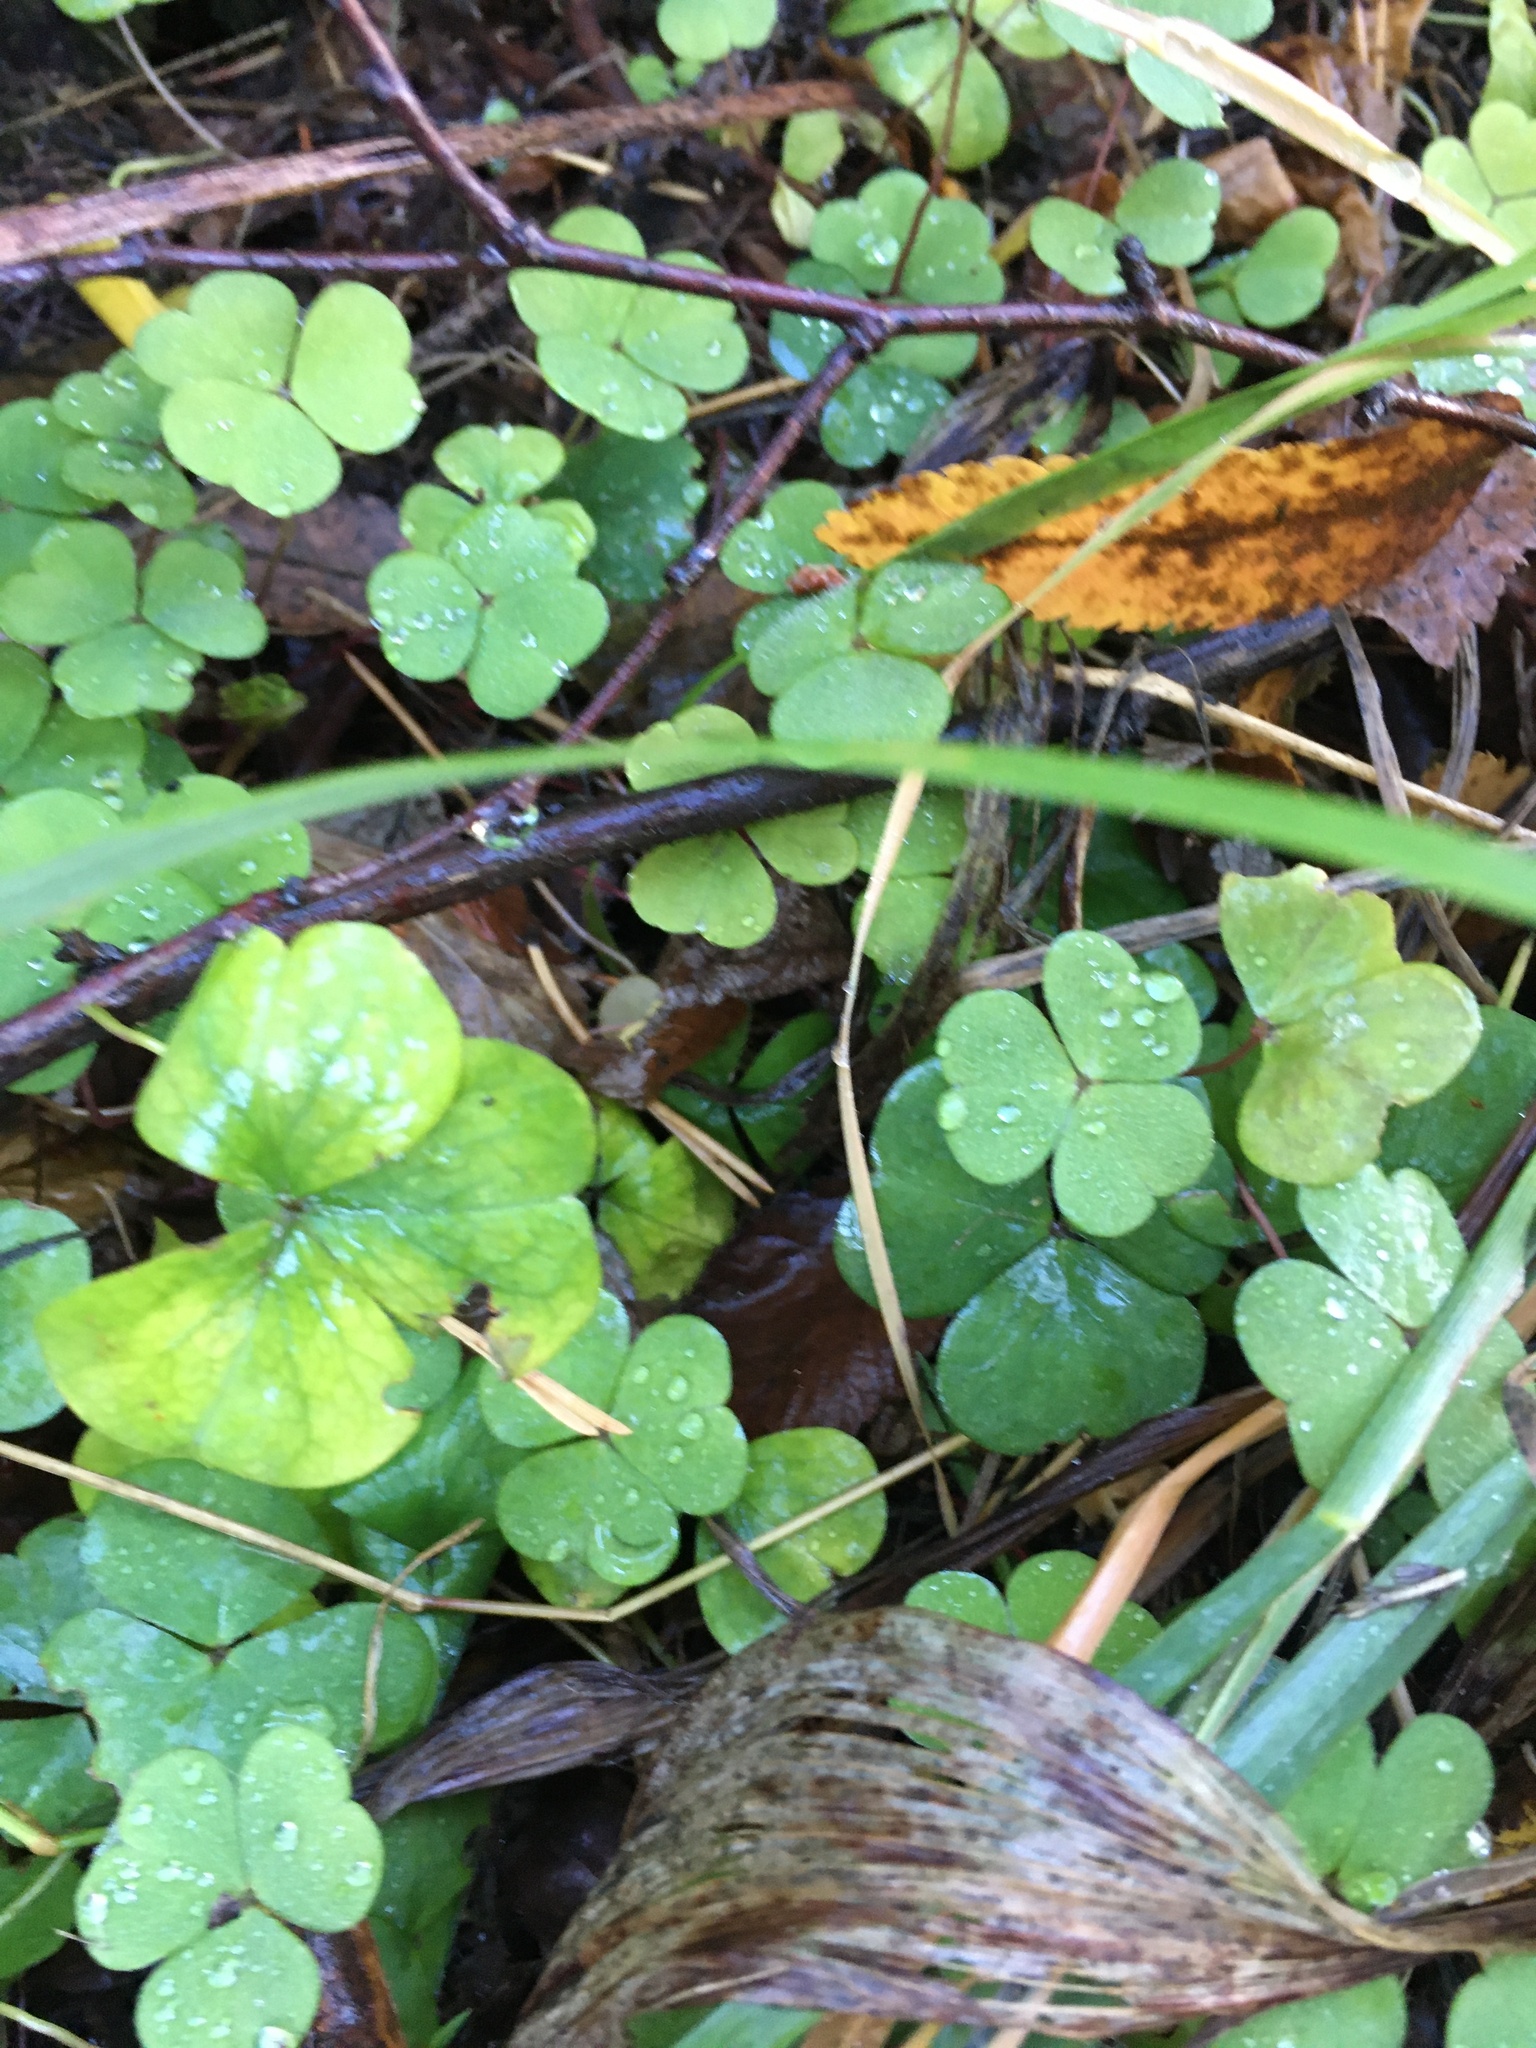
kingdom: Plantae
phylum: Tracheophyta
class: Magnoliopsida
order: Oxalidales
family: Oxalidaceae
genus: Oxalis
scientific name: Oxalis acetosella
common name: Wood-sorrel
